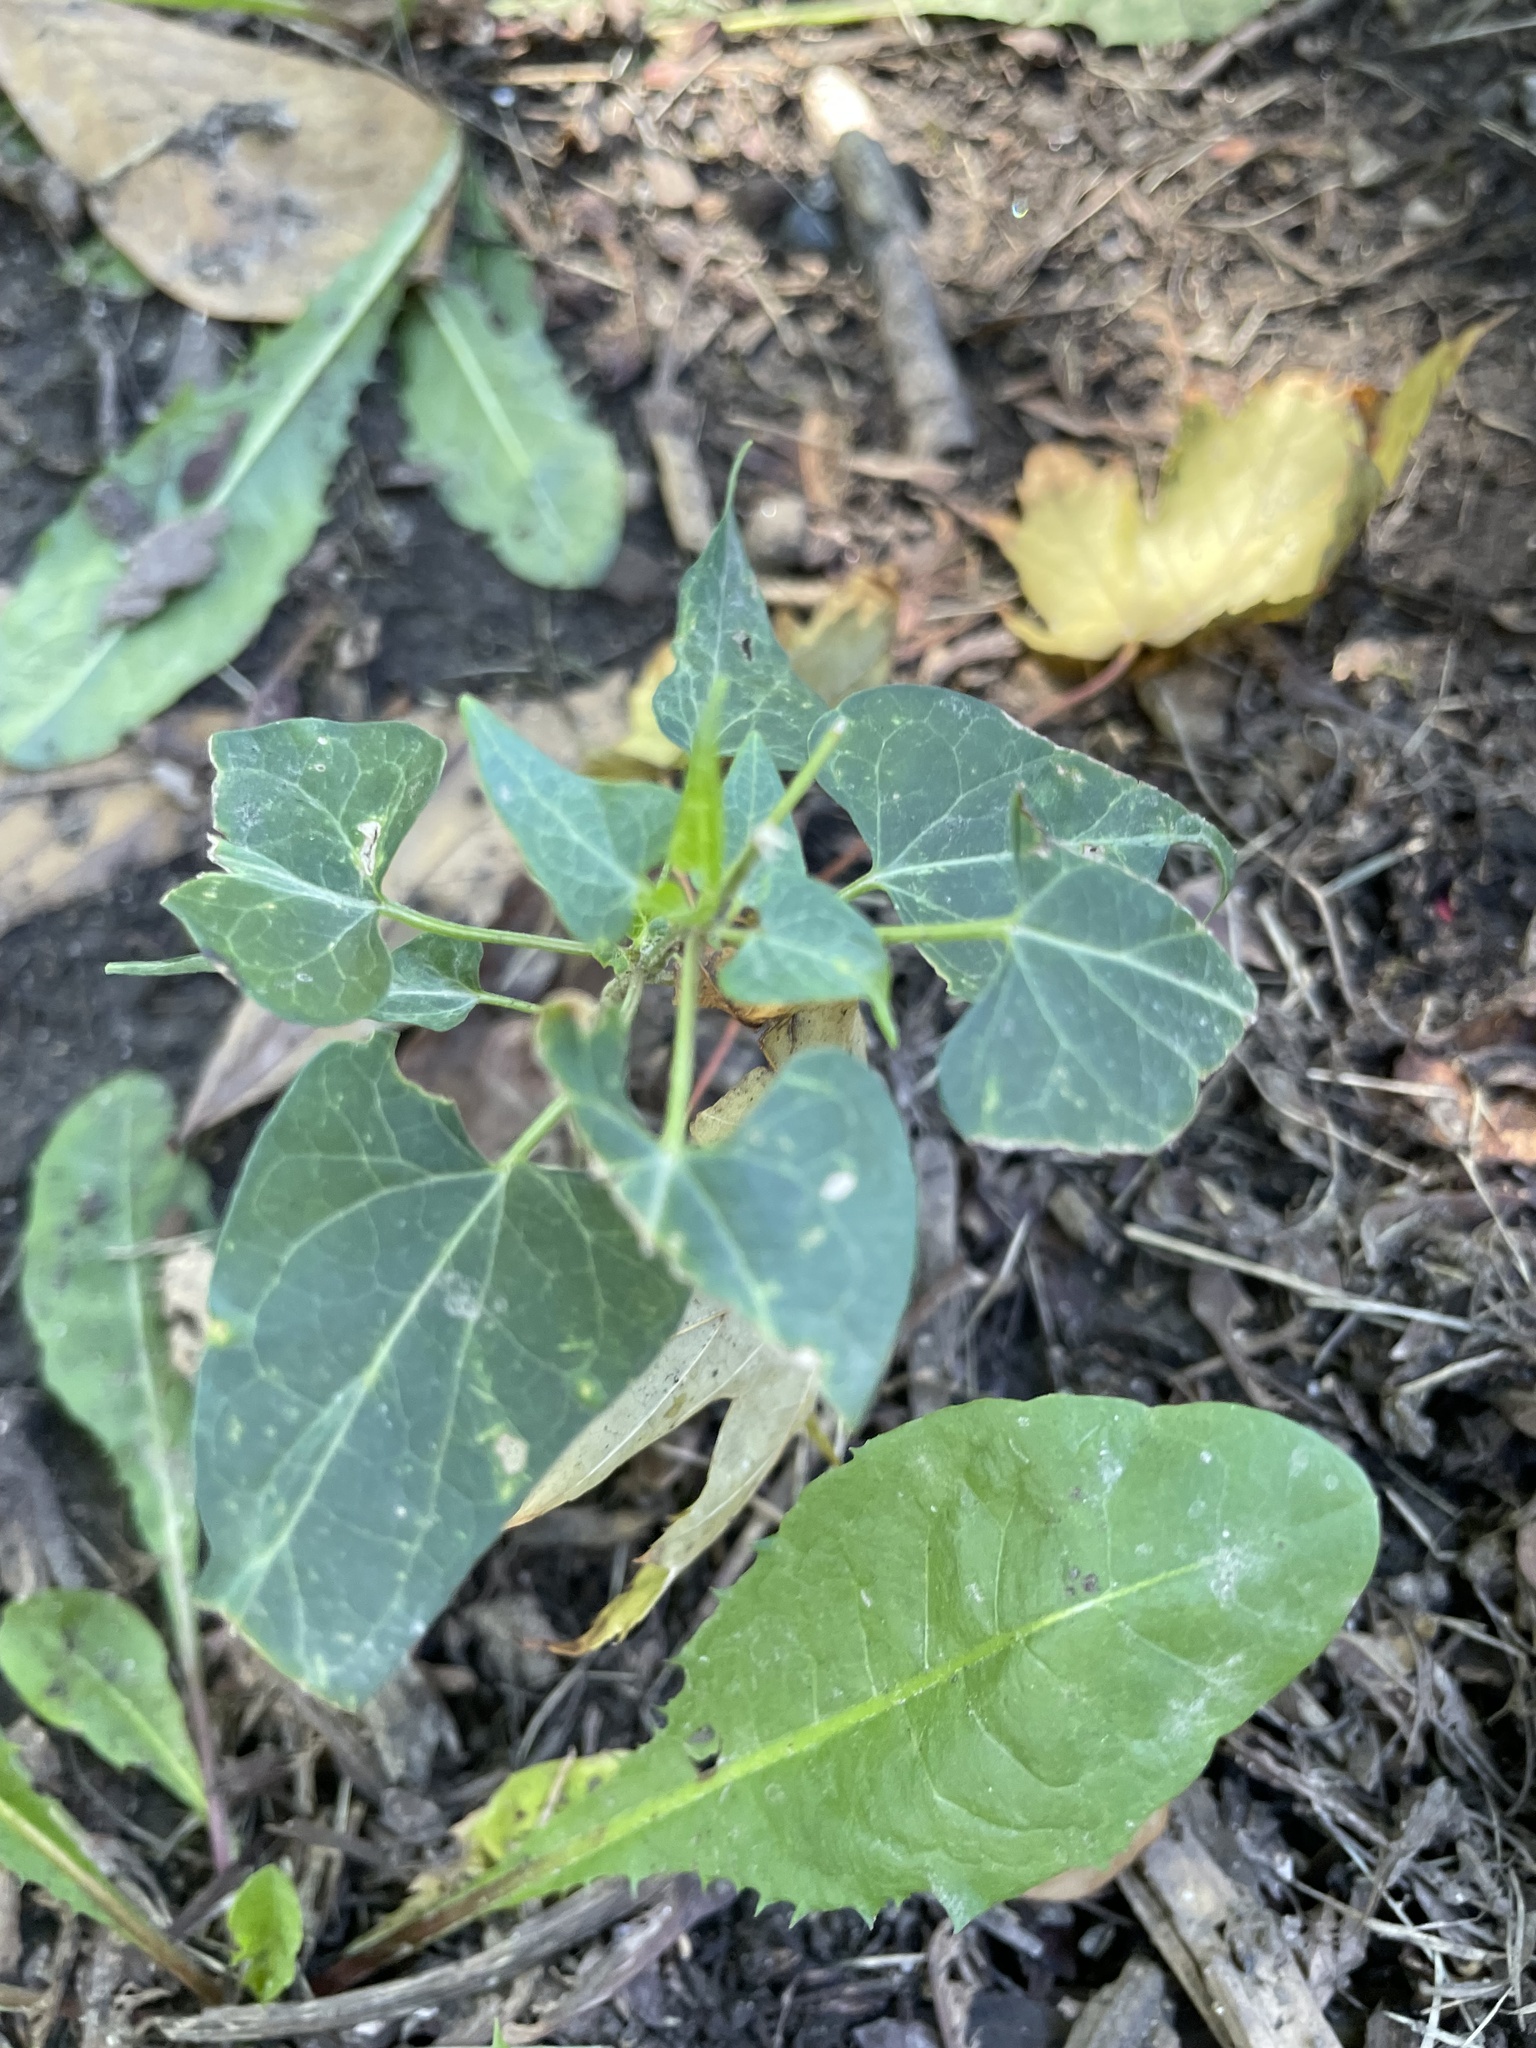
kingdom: Plantae
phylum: Tracheophyta
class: Magnoliopsida
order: Gentianales
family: Apocynaceae
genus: Cynanchum
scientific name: Cynanchum laeve
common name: Sandvine
